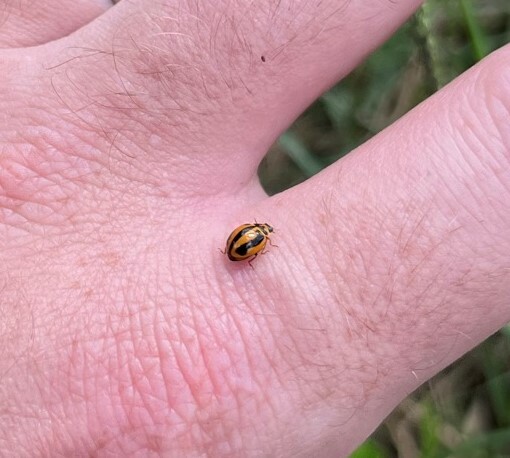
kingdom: Animalia
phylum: Arthropoda
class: Insecta
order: Coleoptera
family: Coccinellidae
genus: Micraspis
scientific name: Micraspis frenata
